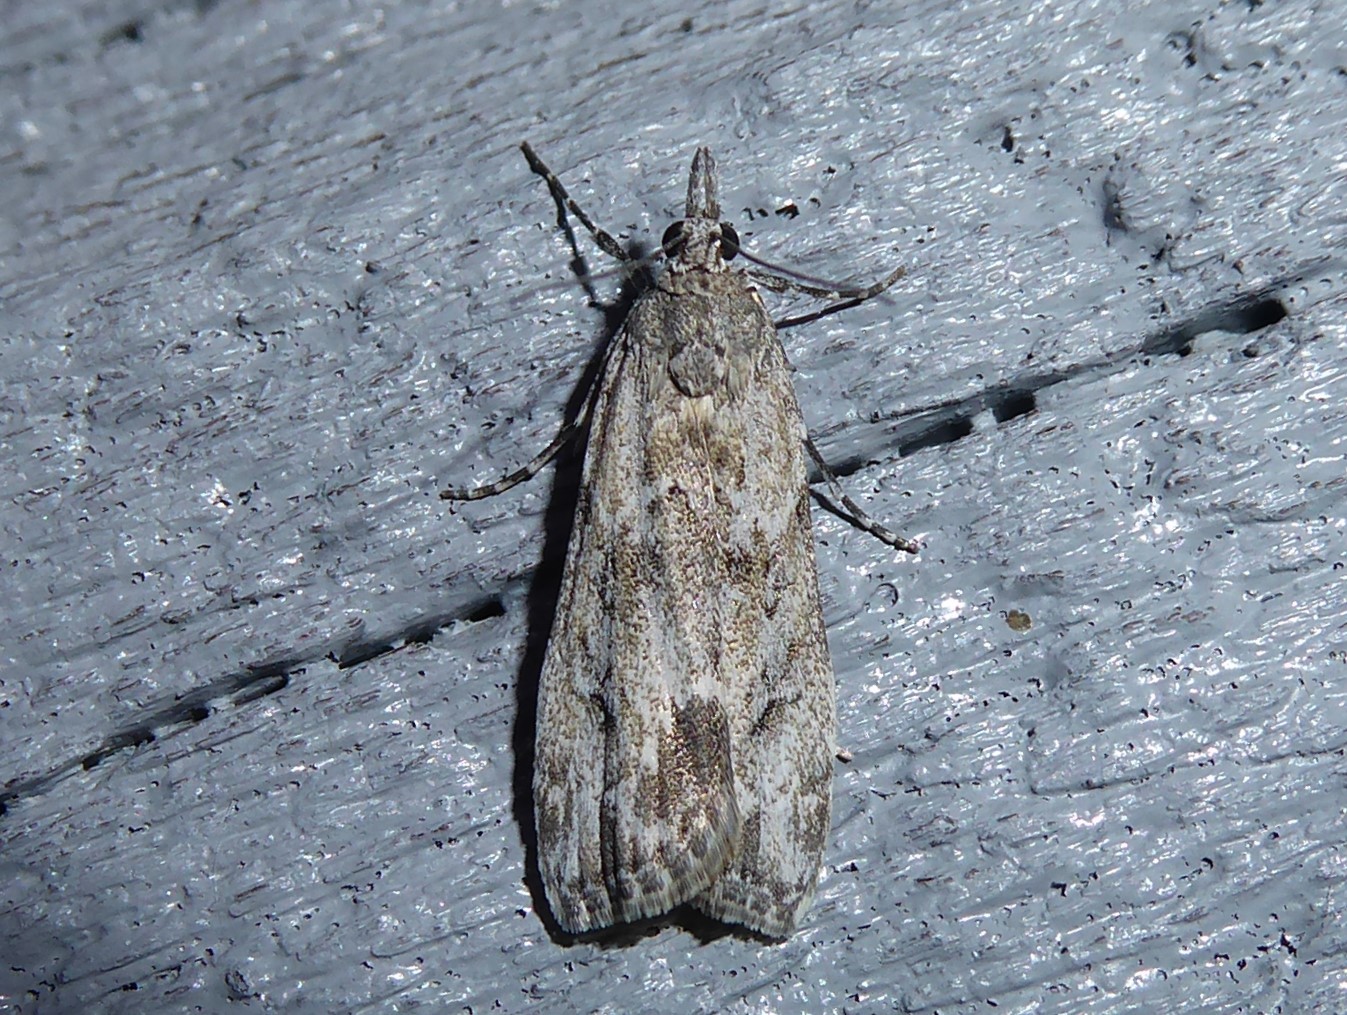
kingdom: Animalia
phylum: Arthropoda
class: Insecta
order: Lepidoptera
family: Crambidae
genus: Eudonia
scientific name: Eudonia rakaiensis
